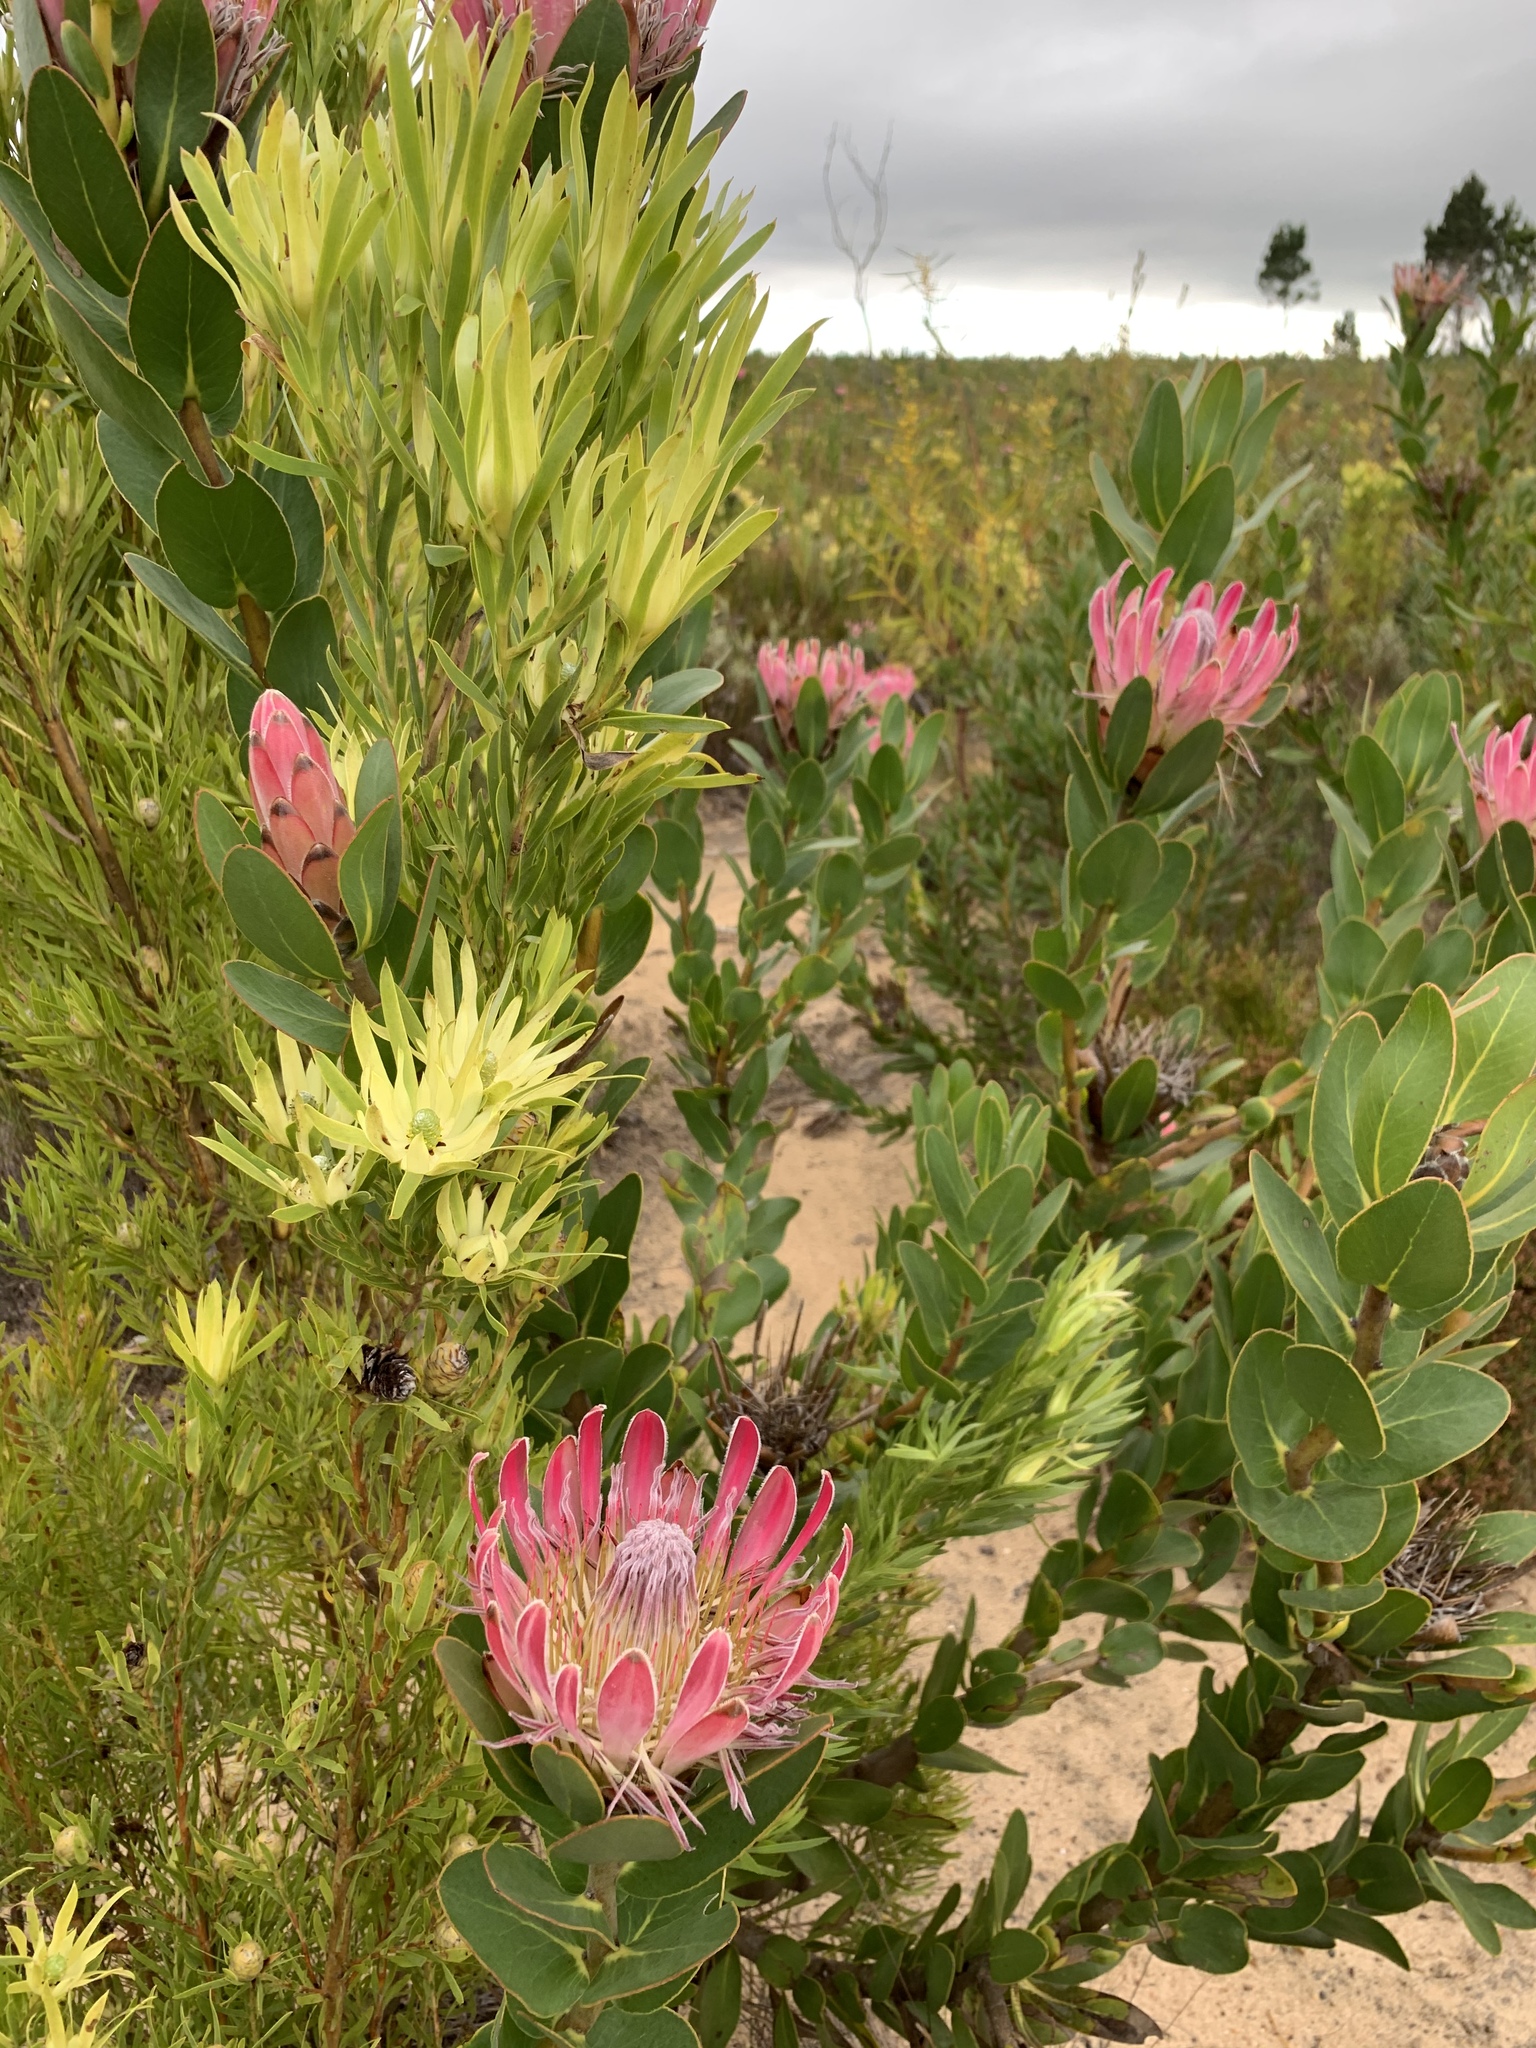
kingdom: Plantae
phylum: Tracheophyta
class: Magnoliopsida
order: Proteales
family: Proteaceae
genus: Protea
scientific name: Protea compacta
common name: Bot river protea
